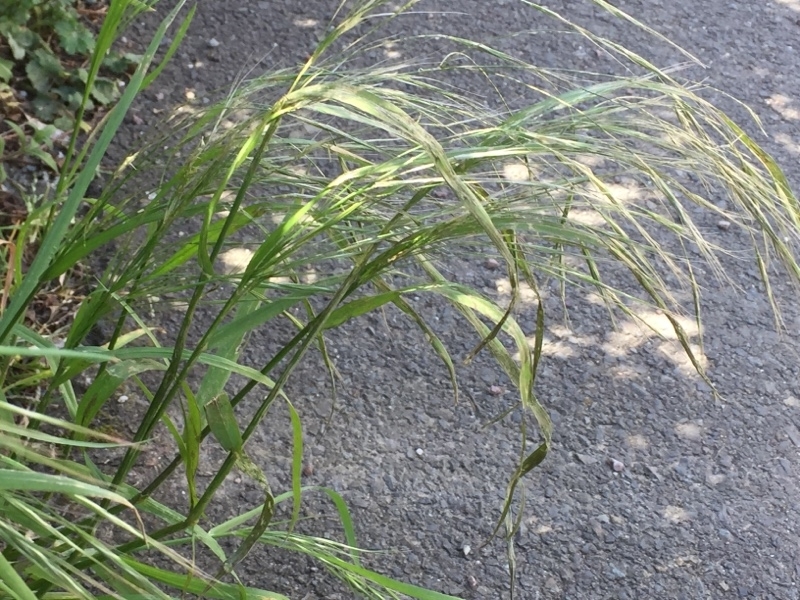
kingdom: Plantae
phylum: Tracheophyta
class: Liliopsida
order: Poales
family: Poaceae
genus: Bromus
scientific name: Bromus sterilis
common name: Poverty brome
